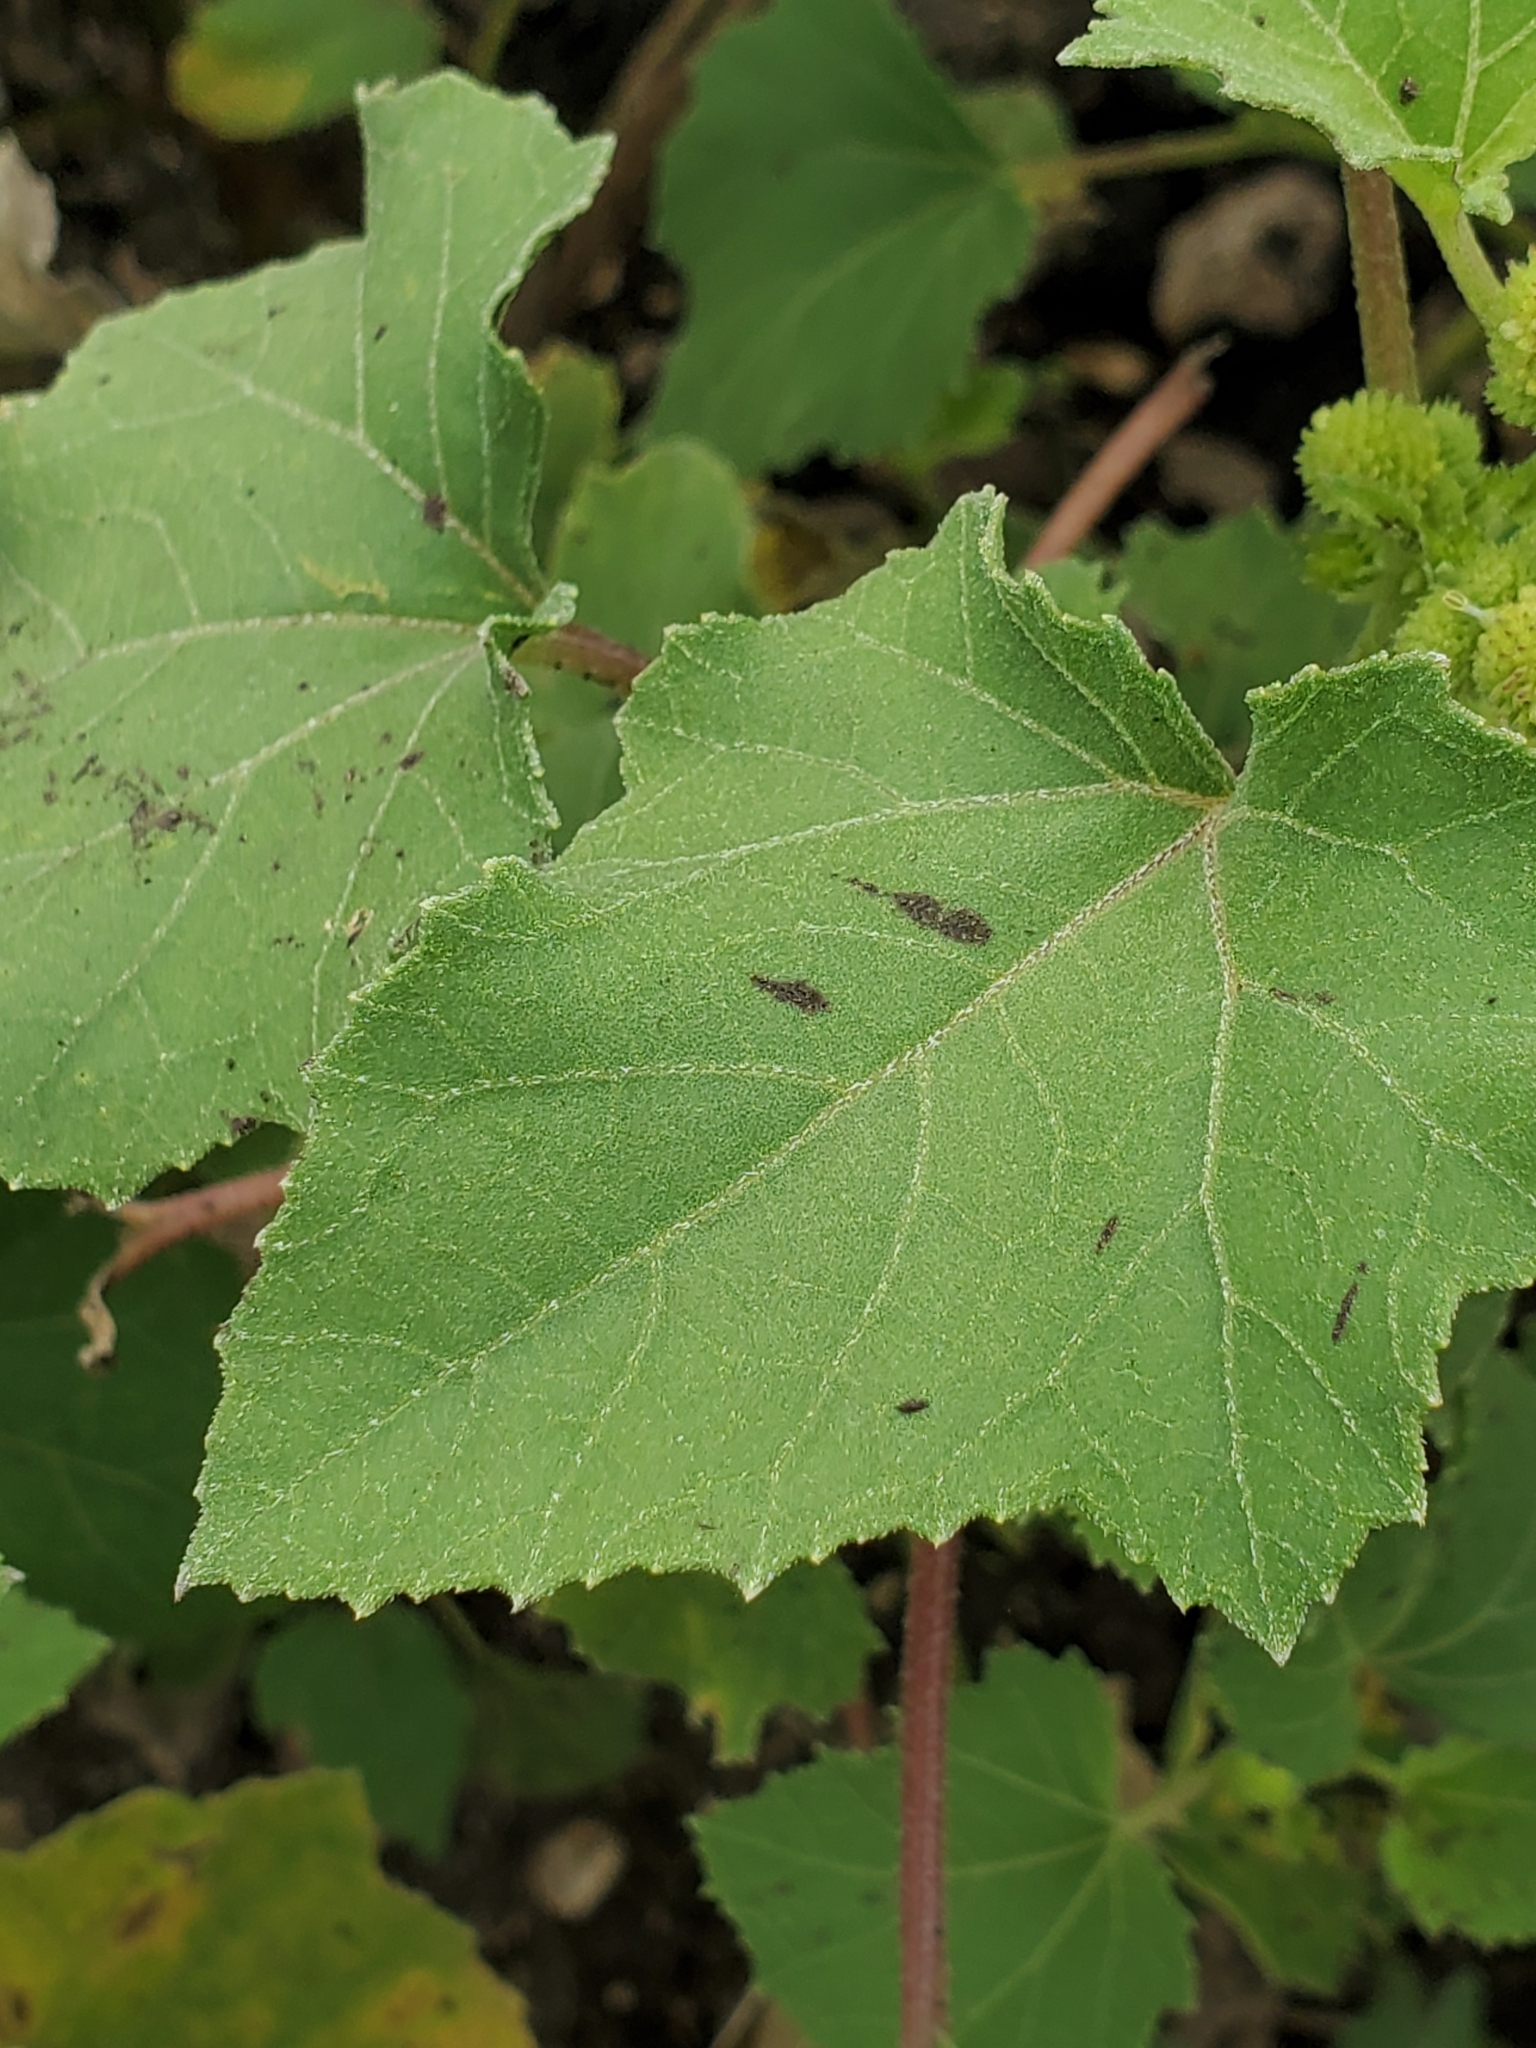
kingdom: Plantae
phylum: Tracheophyta
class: Magnoliopsida
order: Asterales
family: Asteraceae
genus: Xanthium
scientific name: Xanthium strumarium
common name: Rough cocklebur
